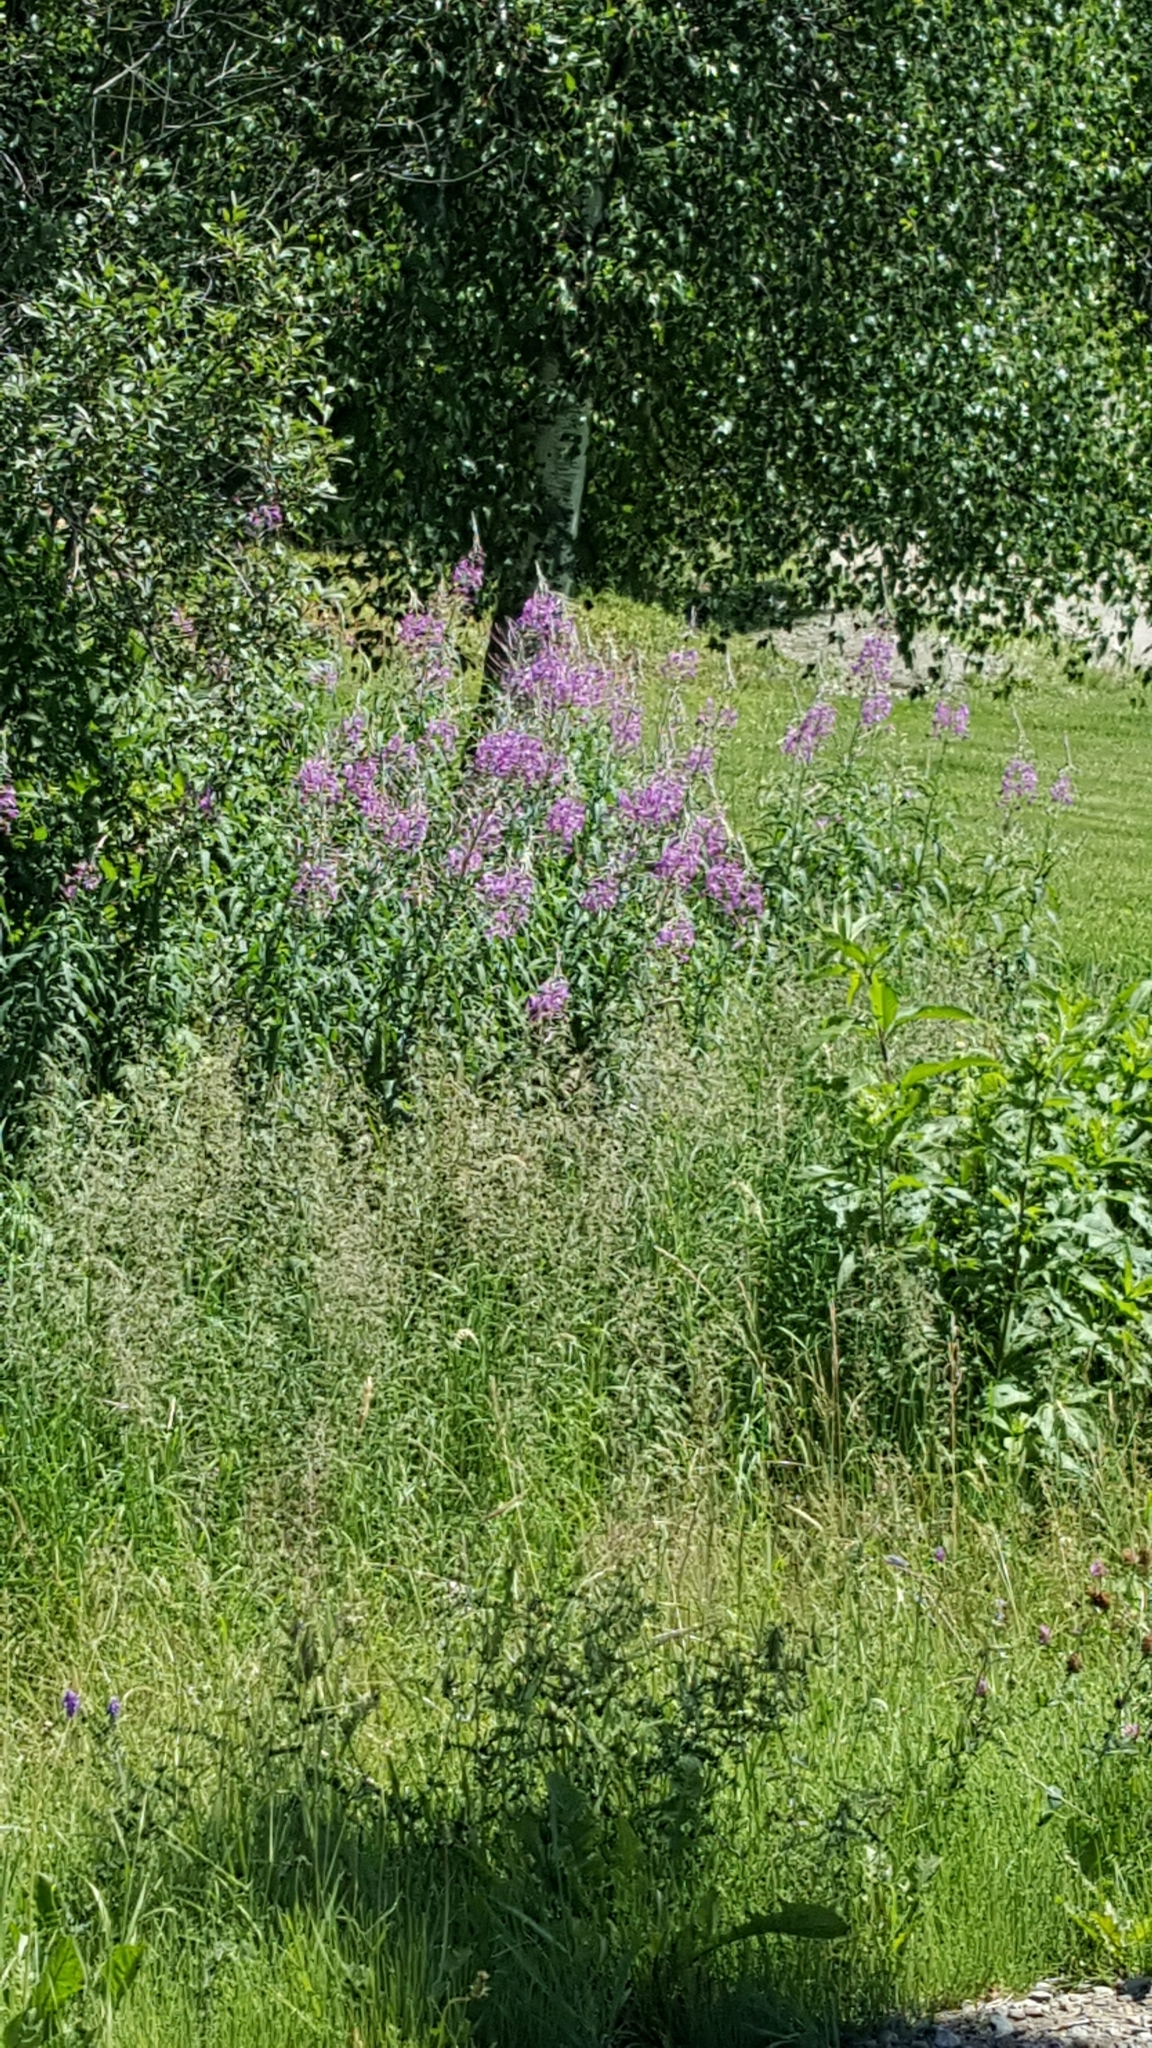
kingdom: Plantae
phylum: Tracheophyta
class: Magnoliopsida
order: Myrtales
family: Onagraceae
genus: Chamaenerion
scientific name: Chamaenerion angustifolium
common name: Fireweed
